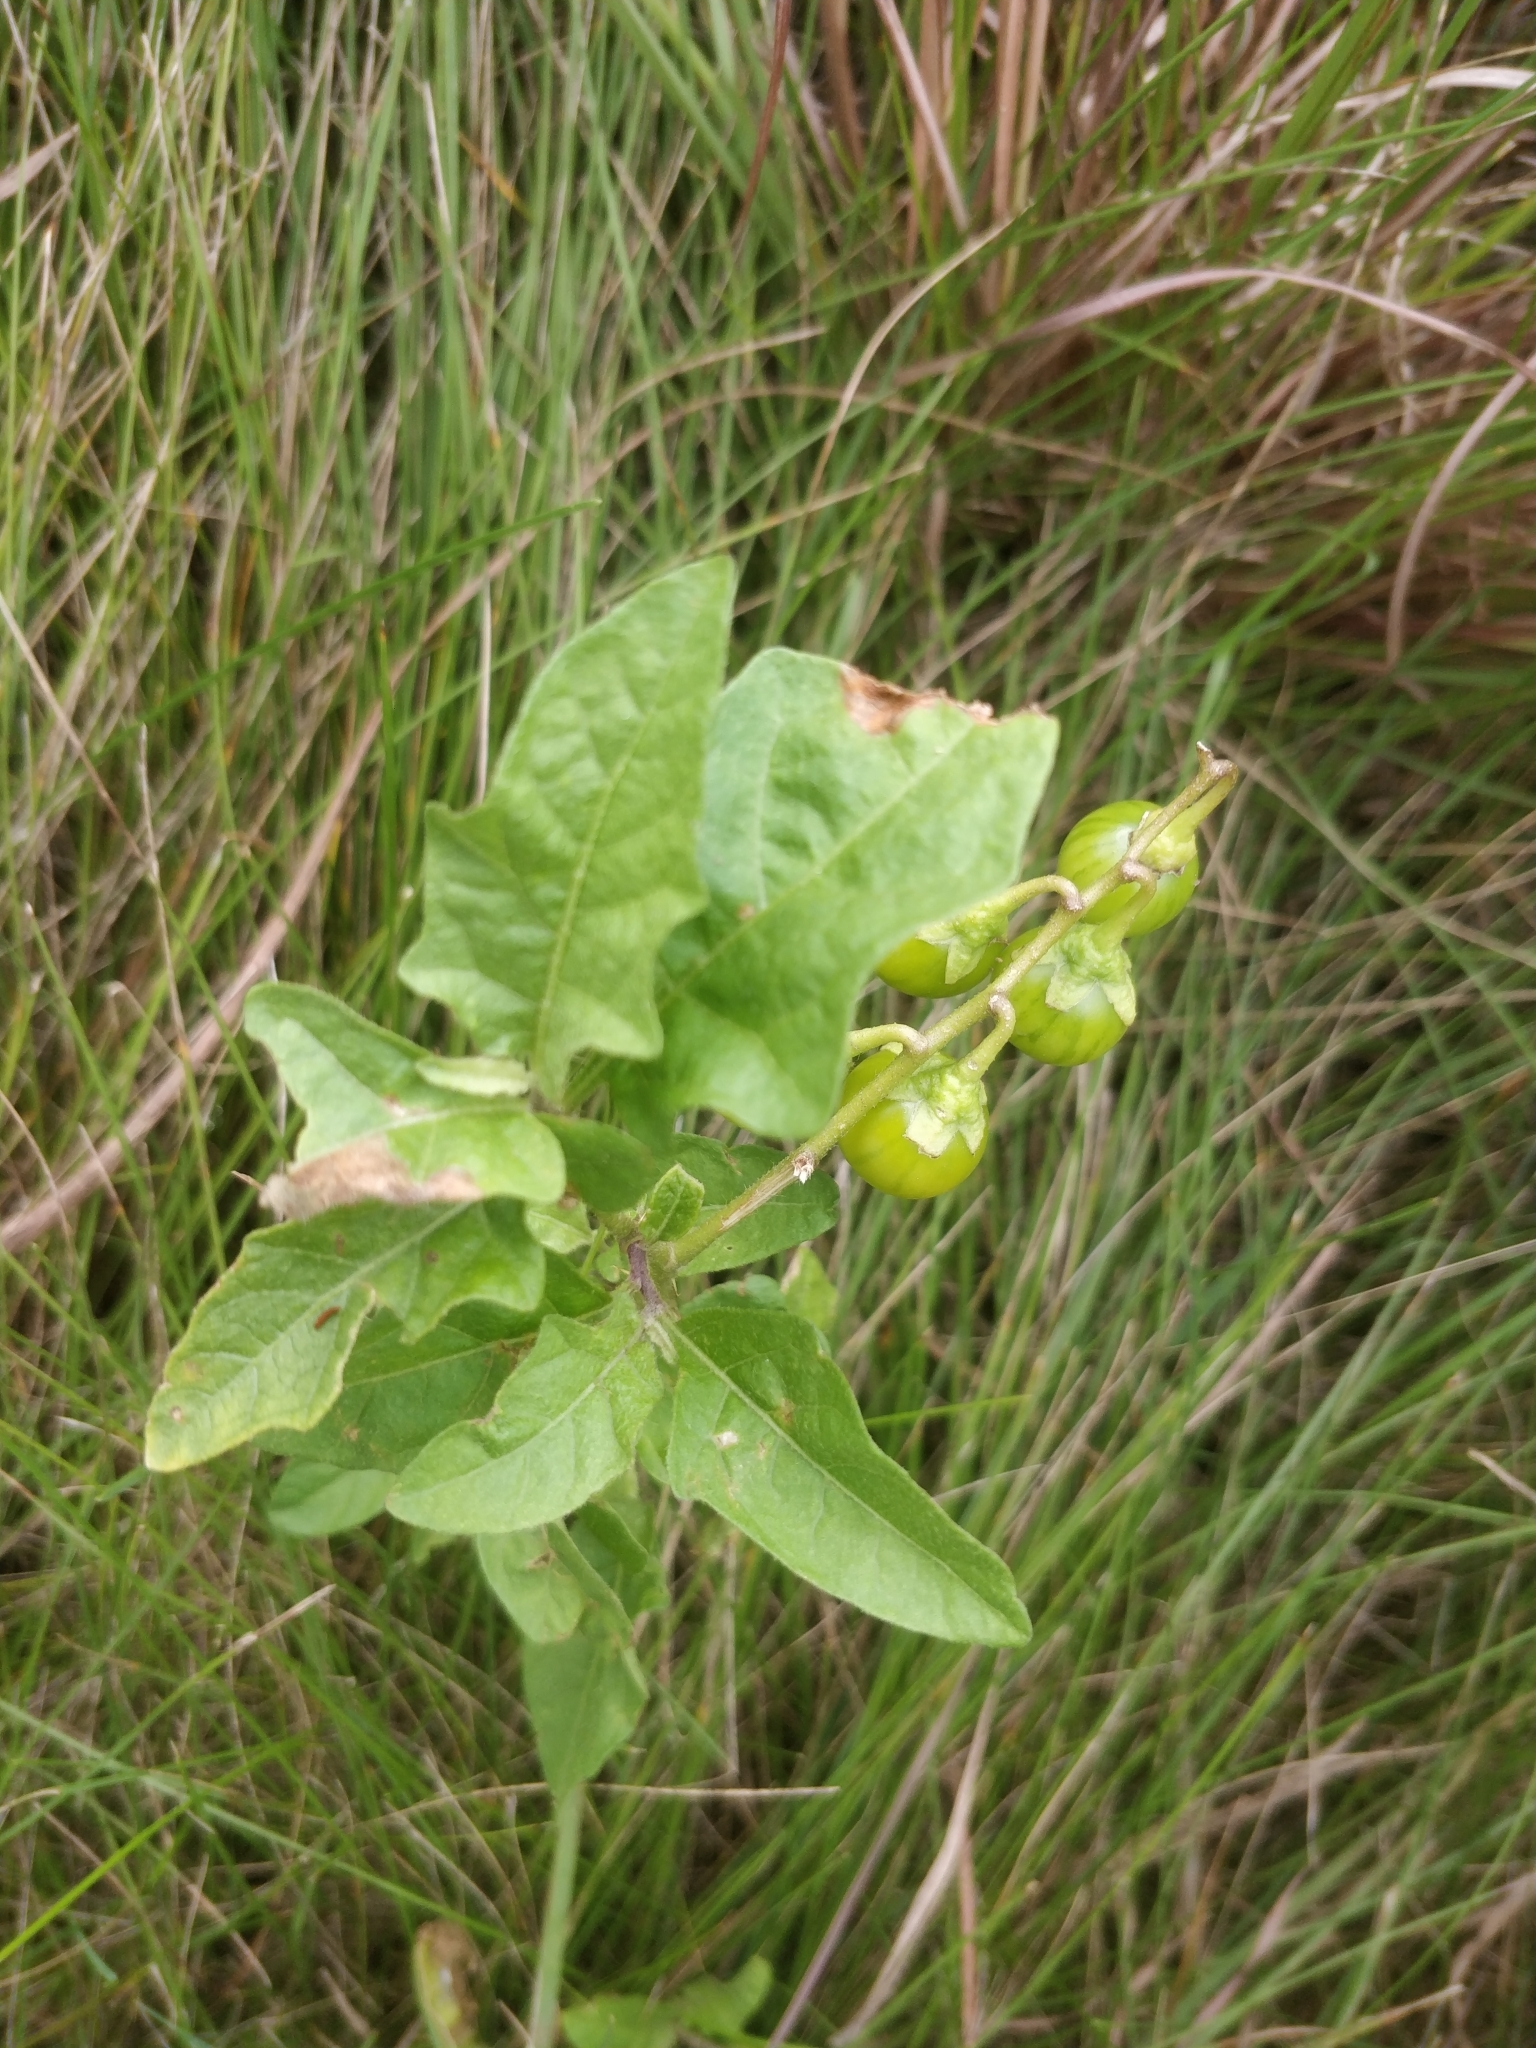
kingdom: Plantae
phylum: Tracheophyta
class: Magnoliopsida
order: Solanales
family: Solanaceae
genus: Solanum
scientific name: Solanum carolinense
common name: Horse-nettle
